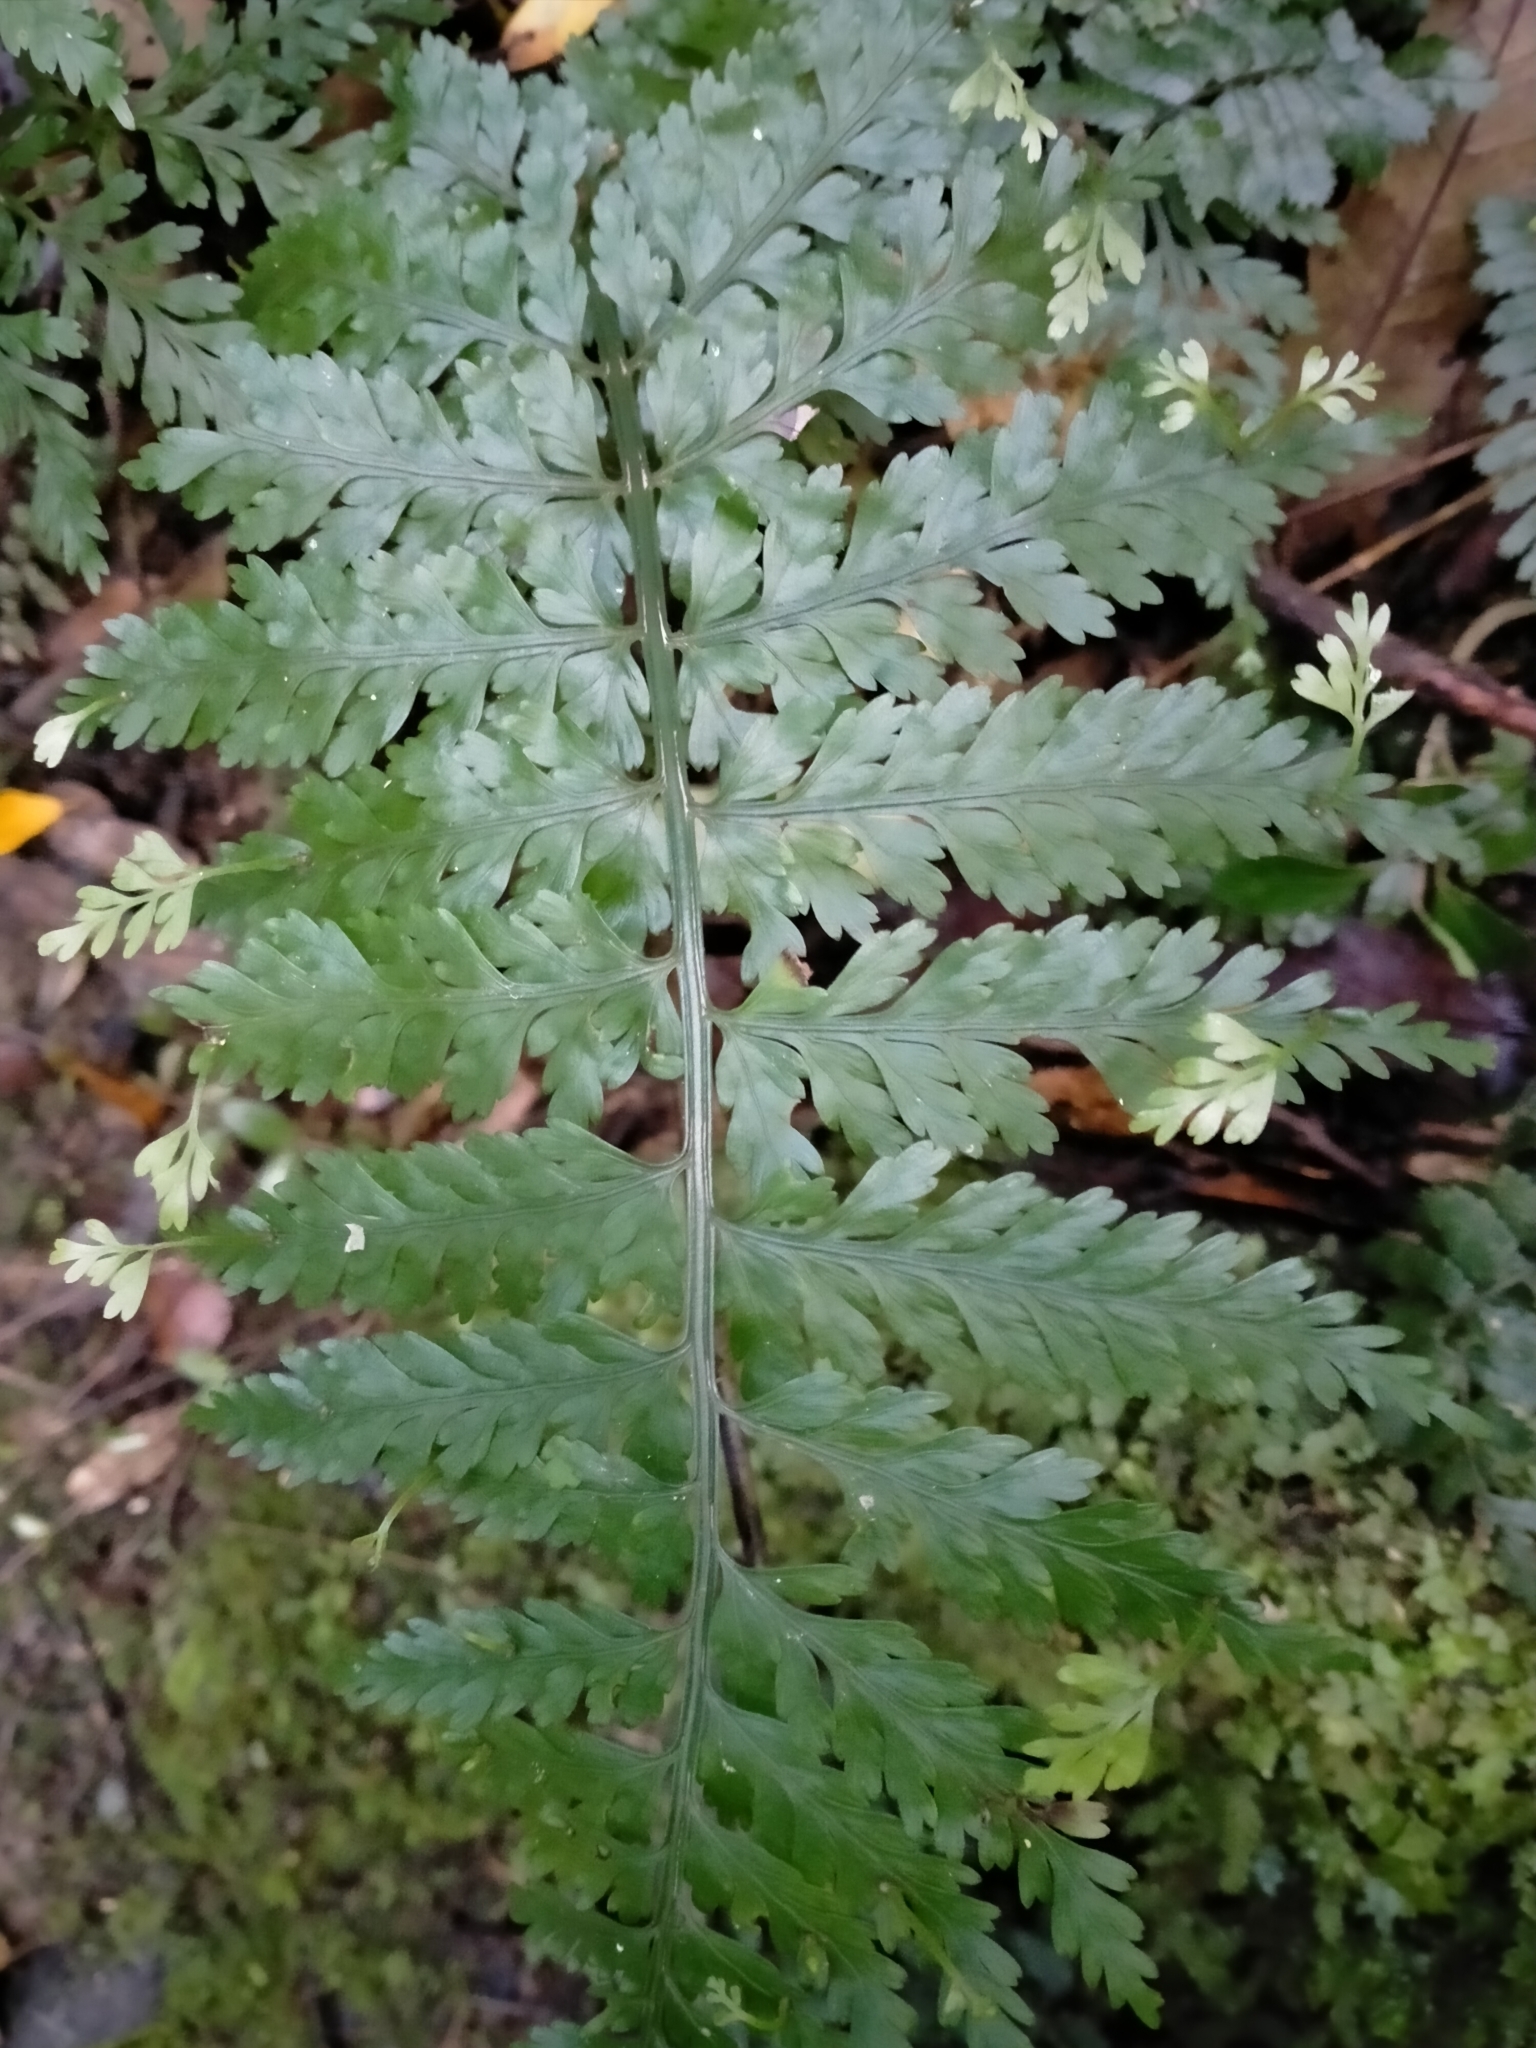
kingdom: Plantae
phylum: Tracheophyta
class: Polypodiopsida
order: Polypodiales
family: Aspleniaceae
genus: Asplenium
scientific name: Asplenium bulbiferum
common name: Mother fern
